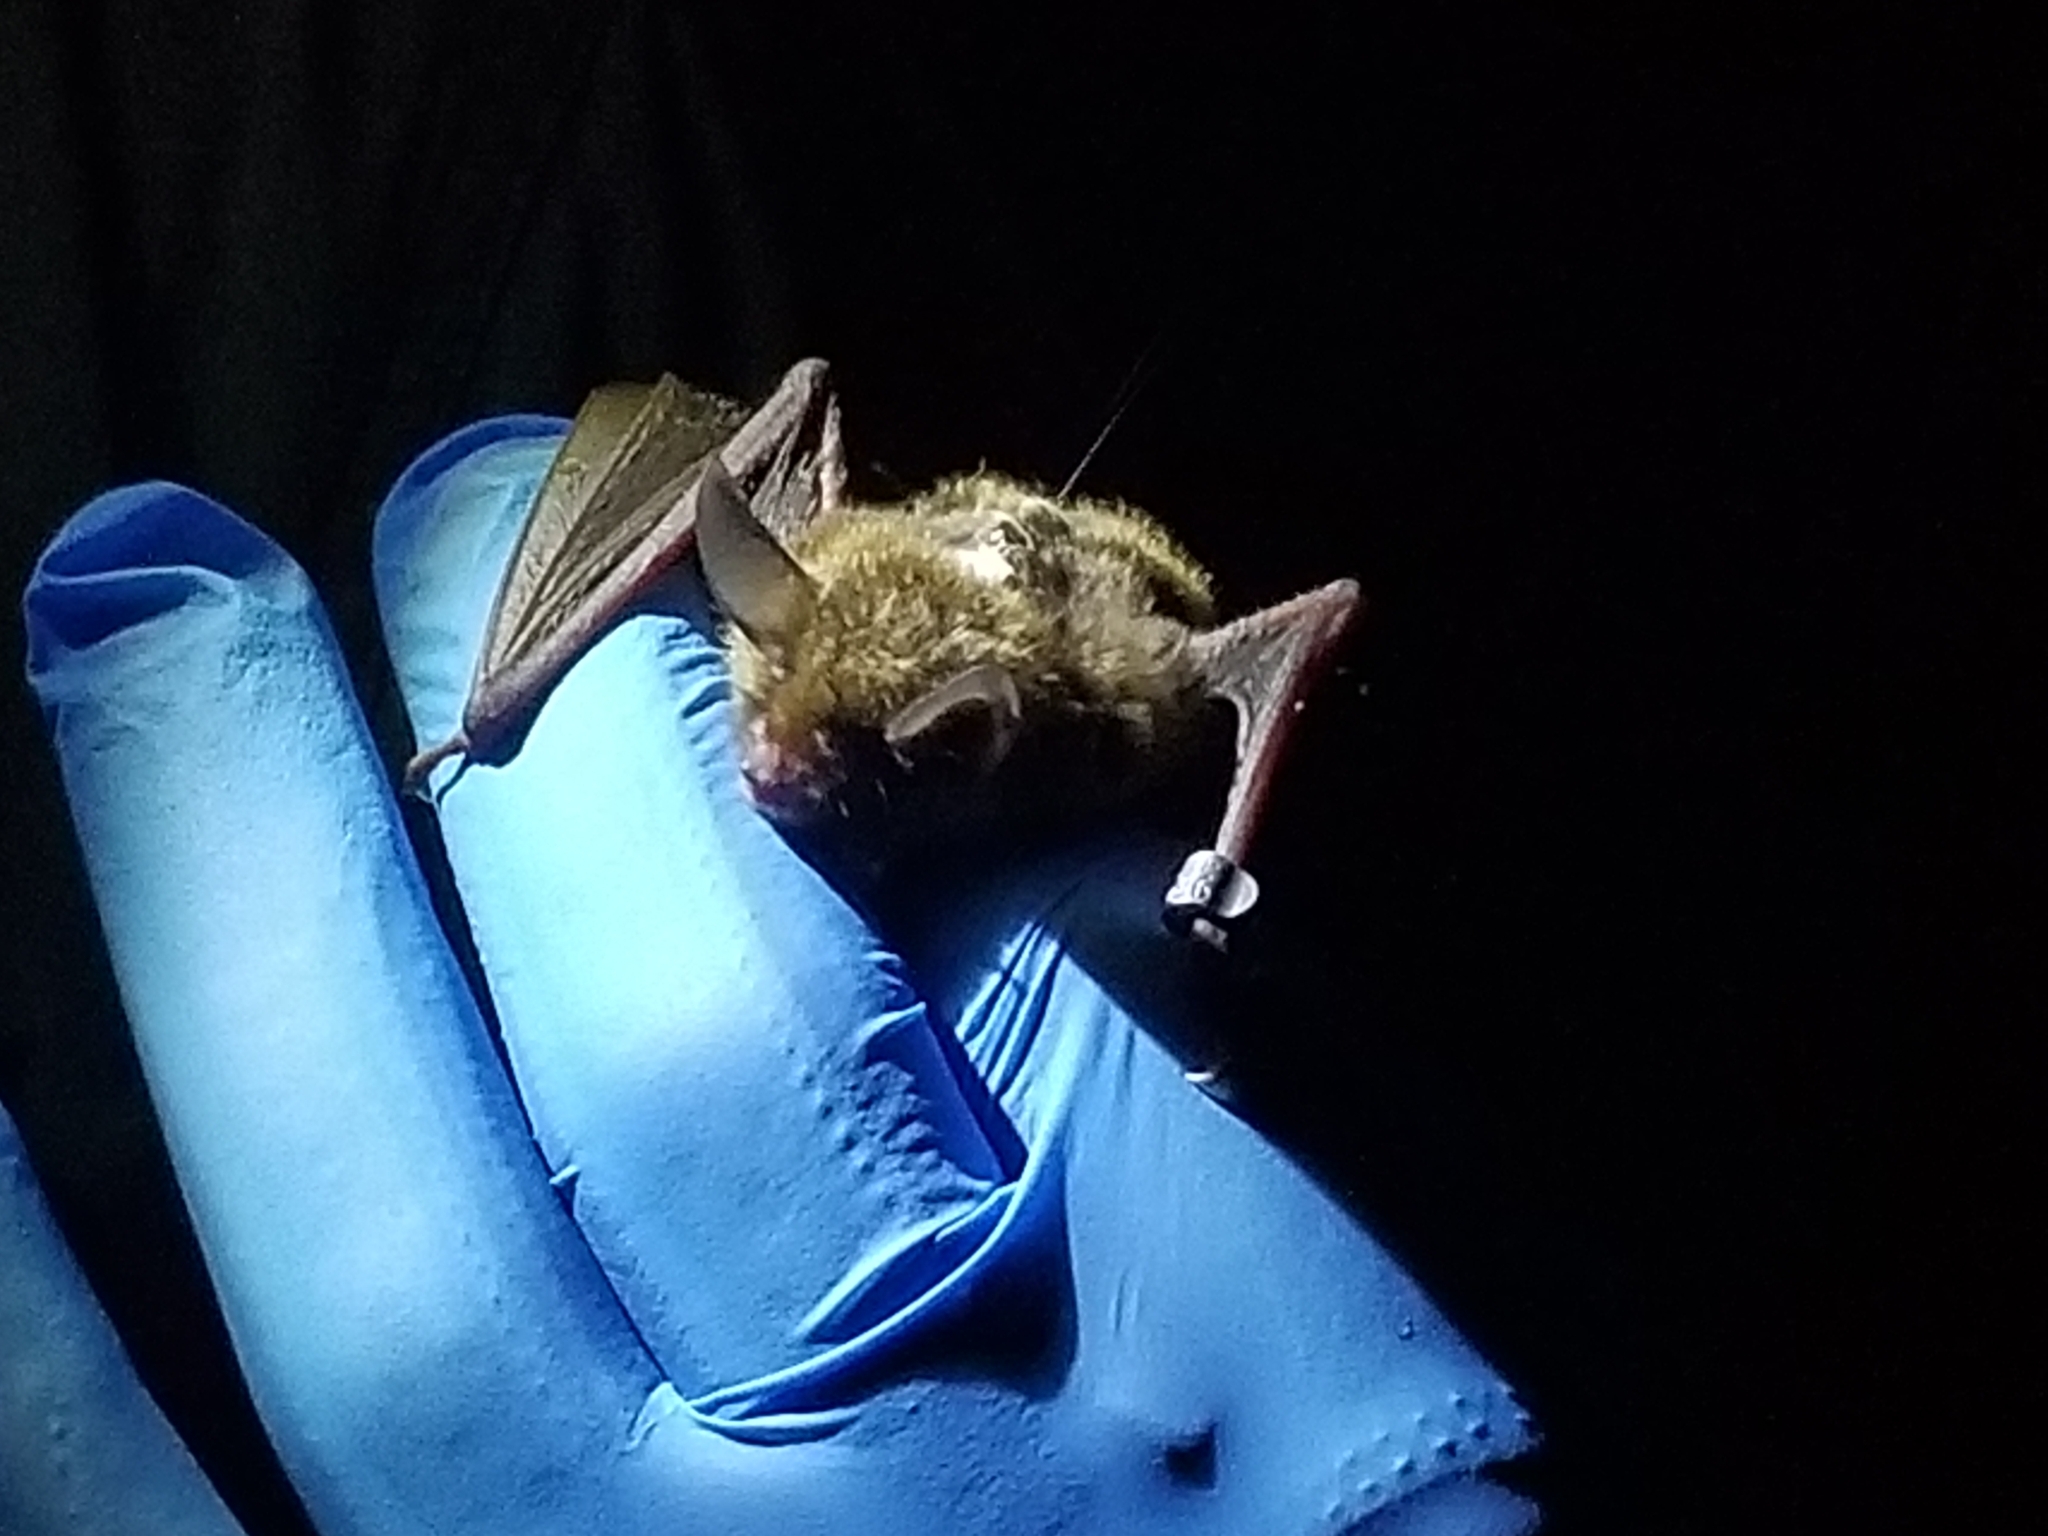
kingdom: Animalia
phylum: Chordata
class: Mammalia
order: Chiroptera
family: Vespertilionidae
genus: Myotis
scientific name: Myotis septentrionalis
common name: Northern myotis
